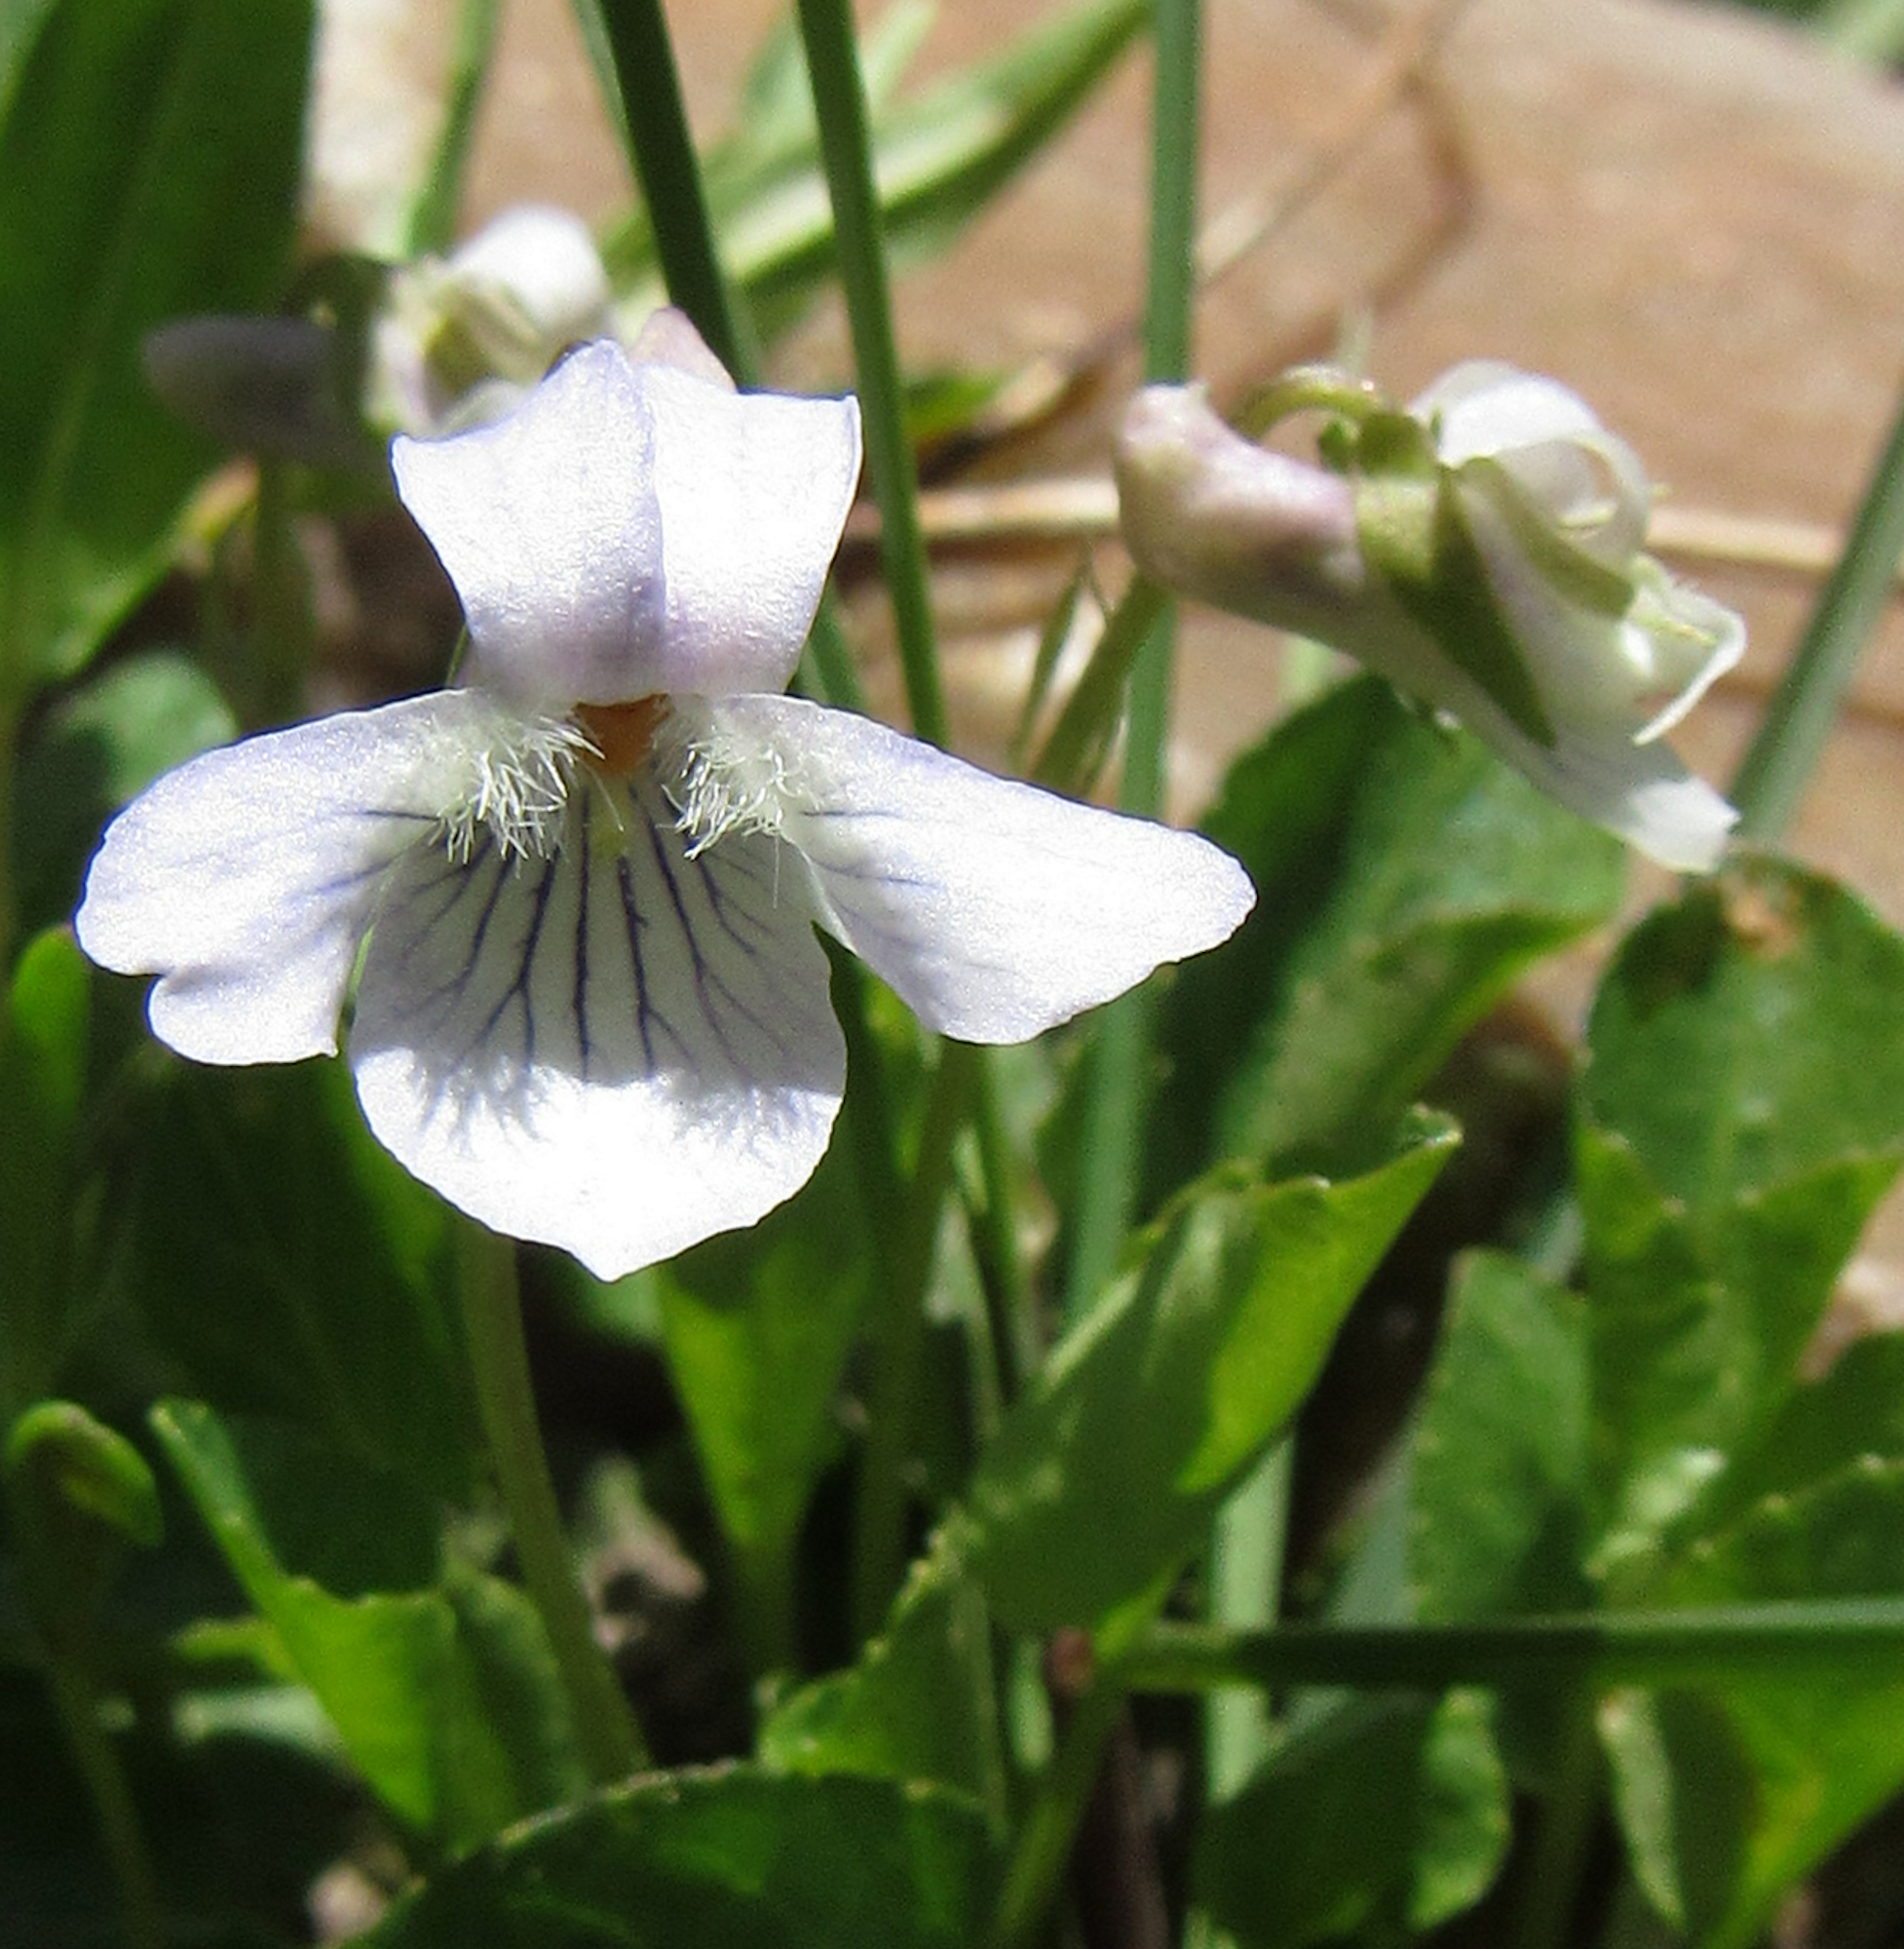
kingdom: Plantae
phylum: Tracheophyta
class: Magnoliopsida
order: Malpighiales
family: Violaceae
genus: Viola
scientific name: Viola adunca
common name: Sand violet
